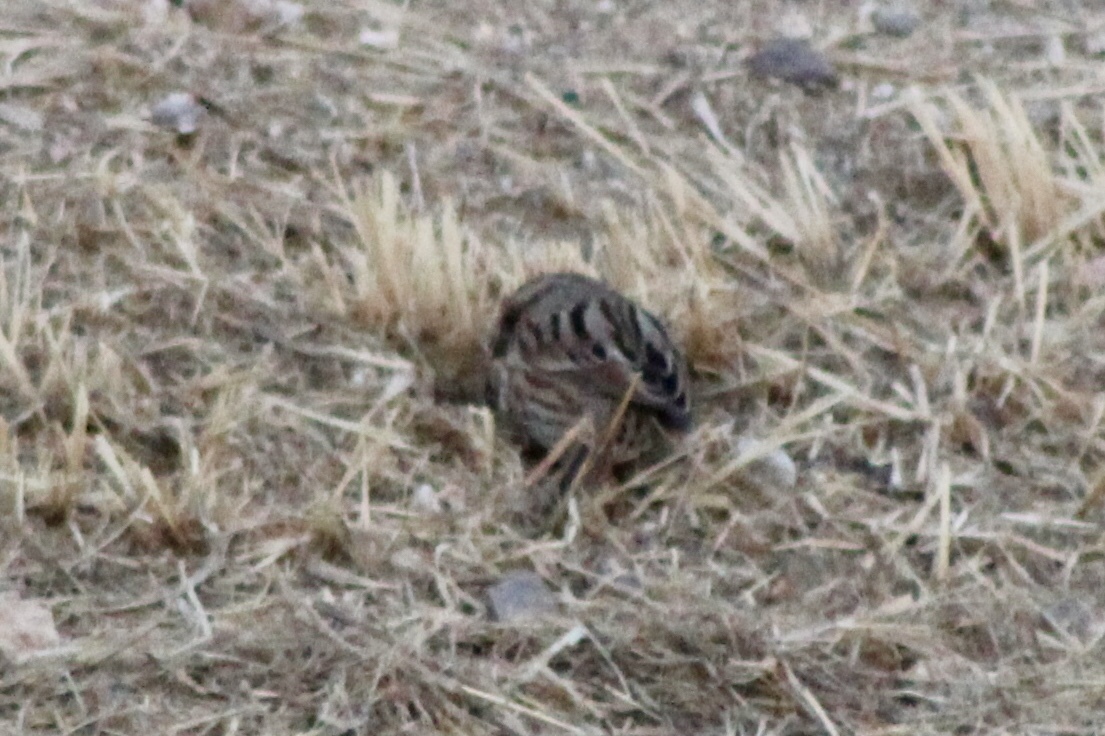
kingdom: Animalia
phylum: Chordata
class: Aves
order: Passeriformes
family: Passerellidae
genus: Melospiza
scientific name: Melospiza melodia
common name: Song sparrow
